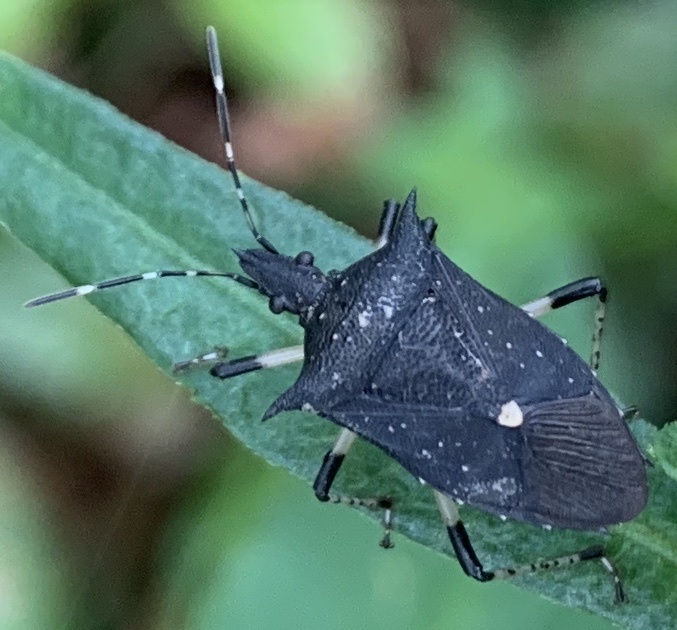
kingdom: Animalia
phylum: Arthropoda
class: Insecta
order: Hemiptera
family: Pentatomidae
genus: Proxys
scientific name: Proxys punctulatus
